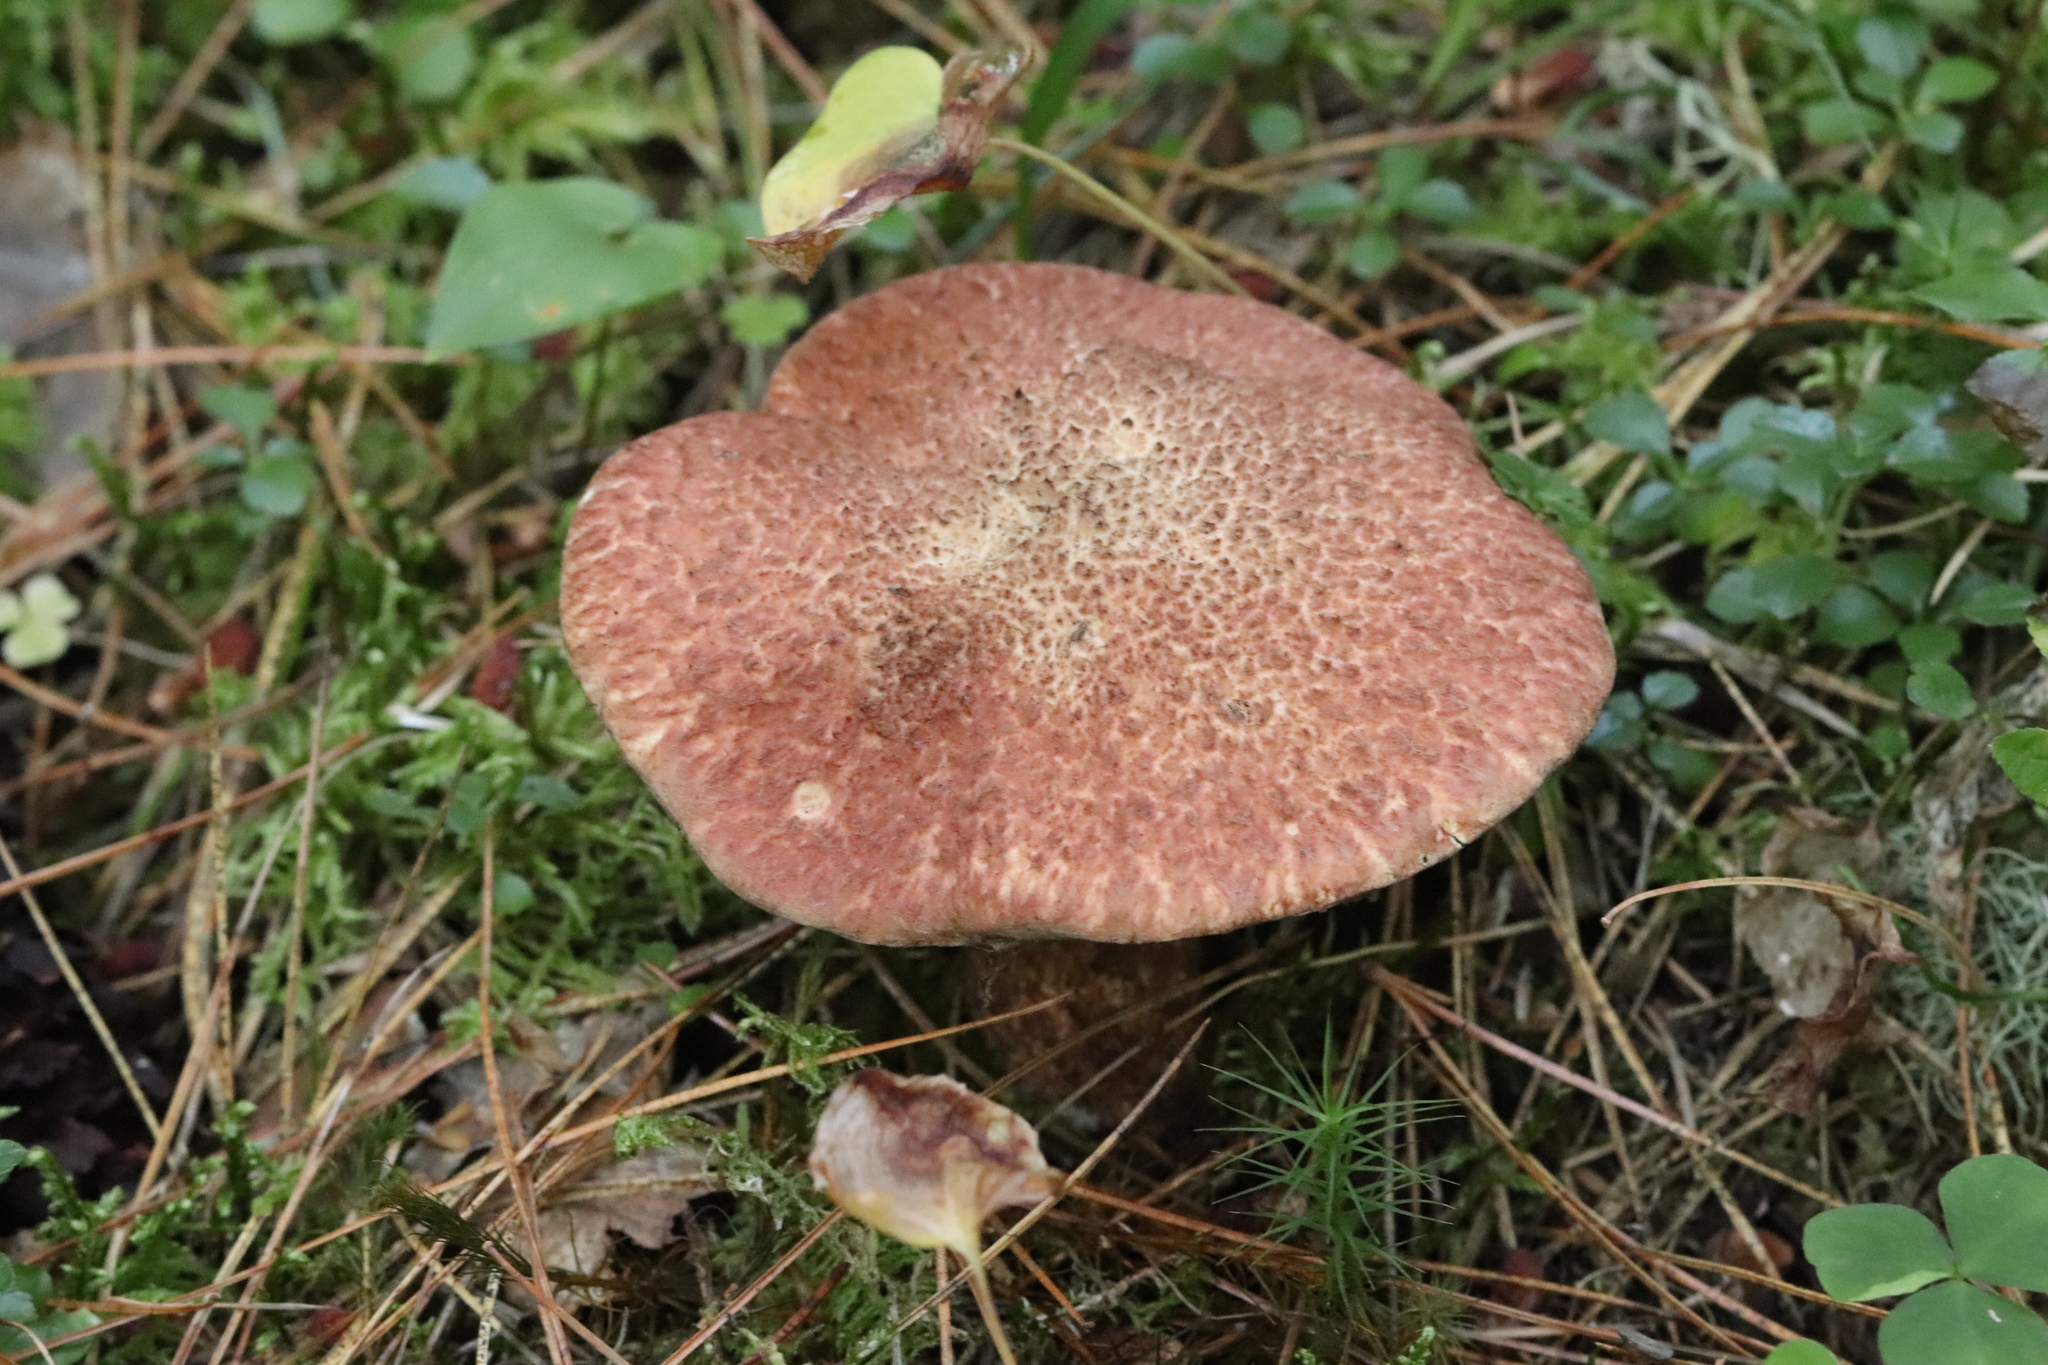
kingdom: Fungi
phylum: Basidiomycota
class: Agaricomycetes
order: Boletales
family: Suillaceae
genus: Suillus
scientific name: Suillus spraguei
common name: Painted suillus
